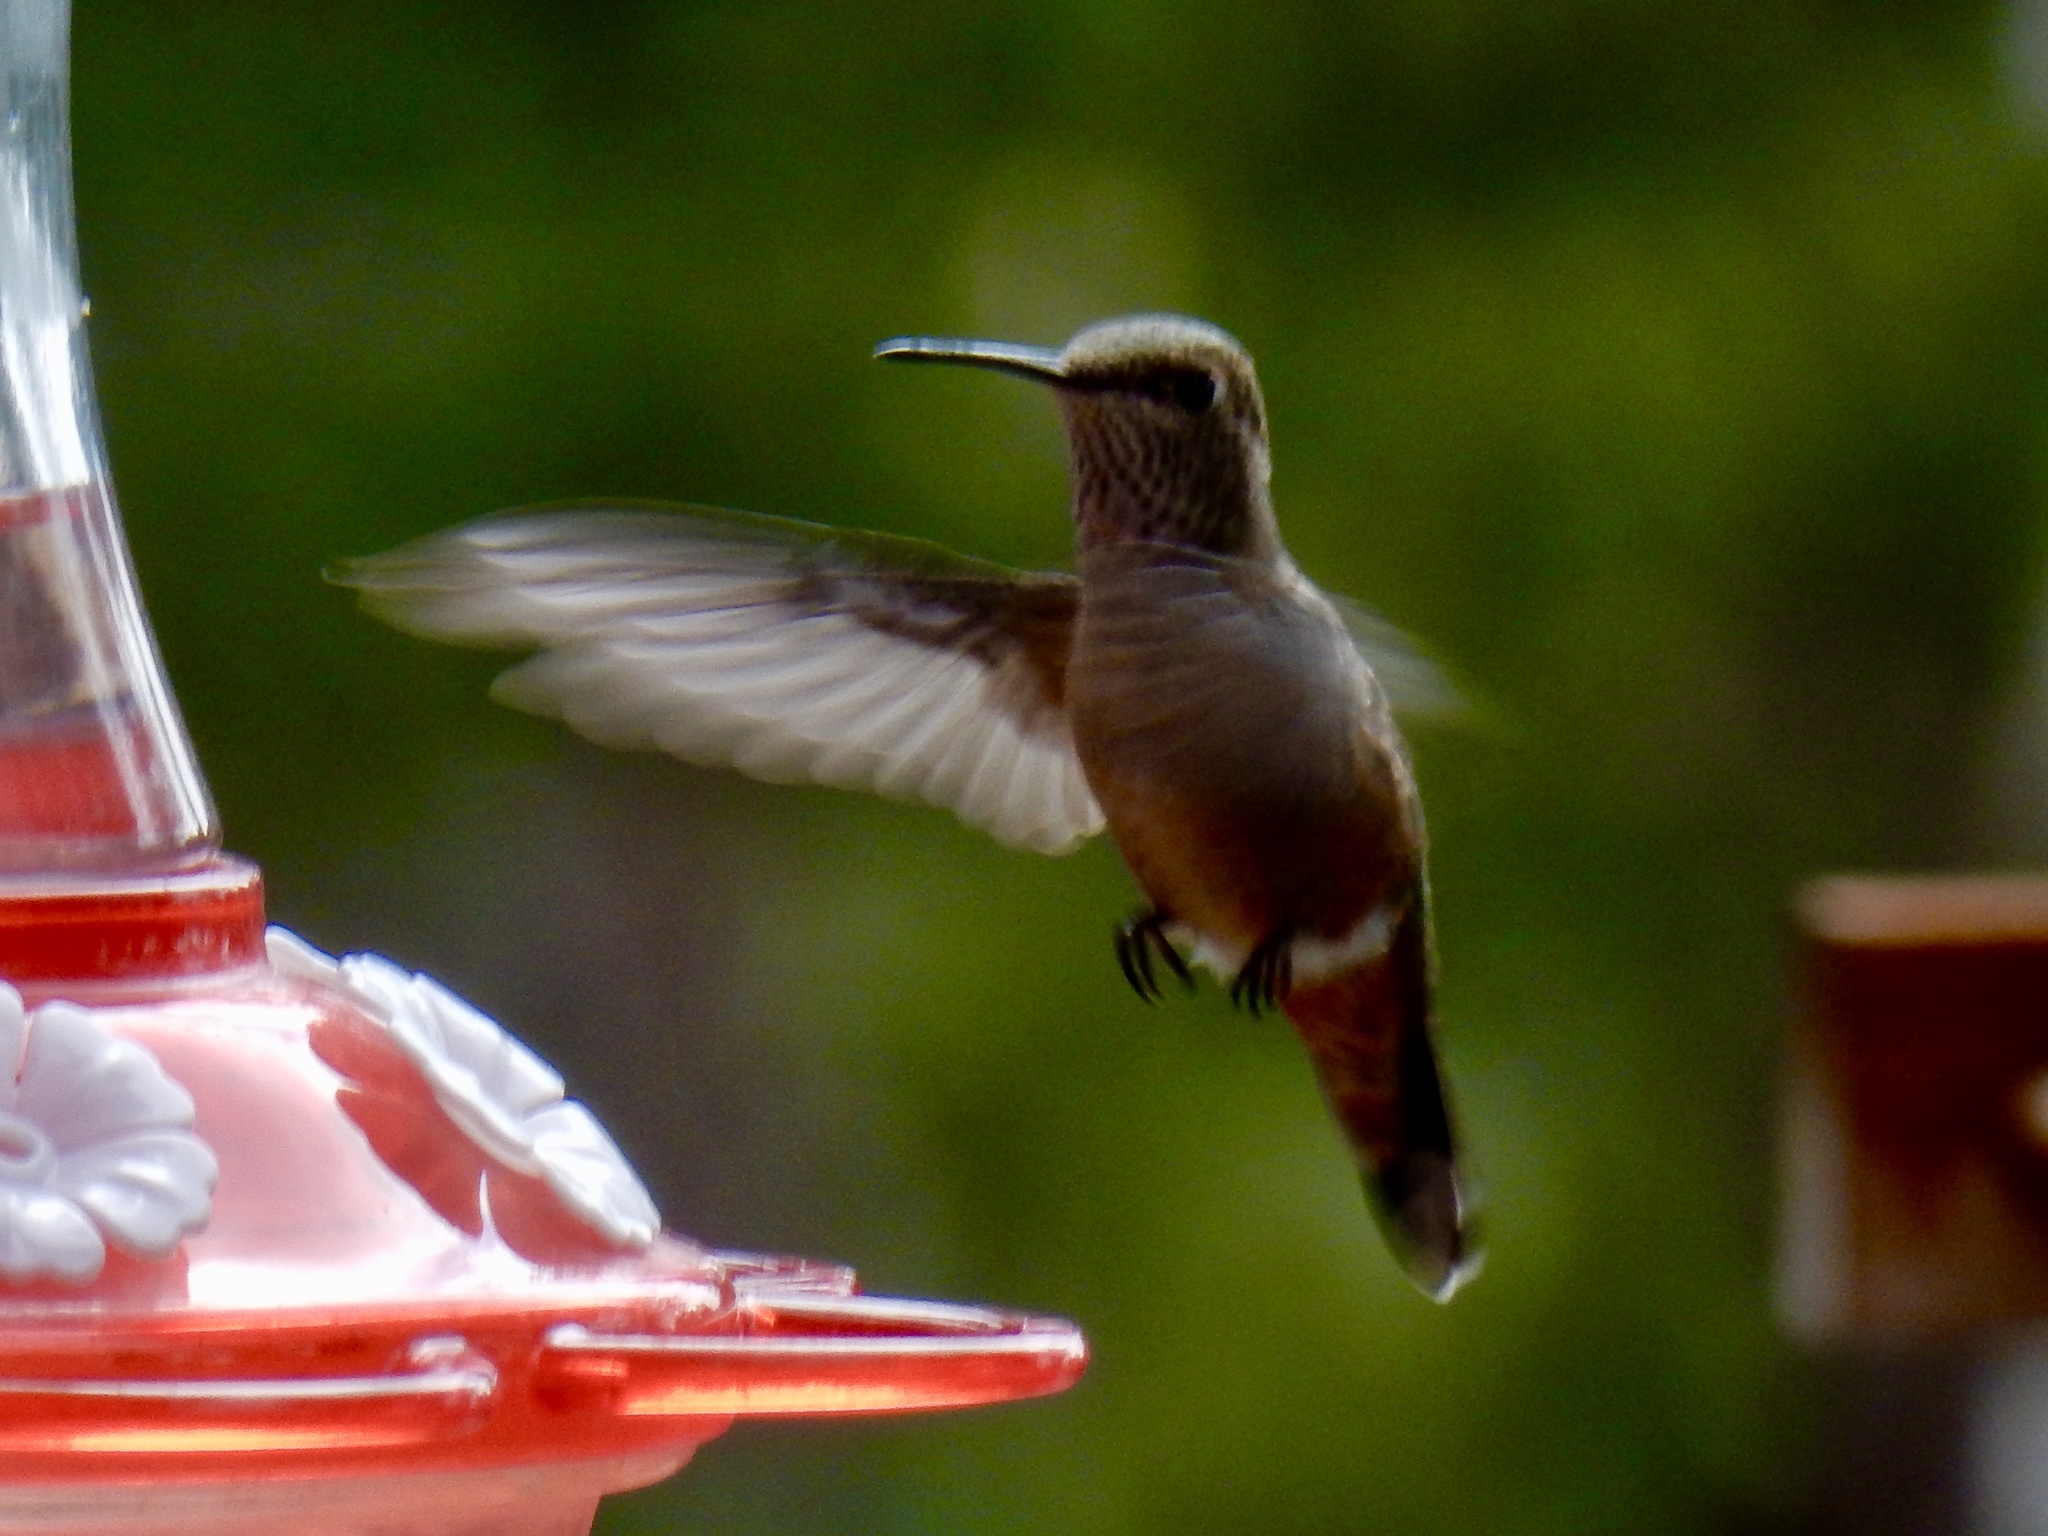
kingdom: Animalia
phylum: Chordata
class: Aves
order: Apodiformes
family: Trochilidae
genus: Selasphorus
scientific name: Selasphorus rufus
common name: Rufous hummingbird
